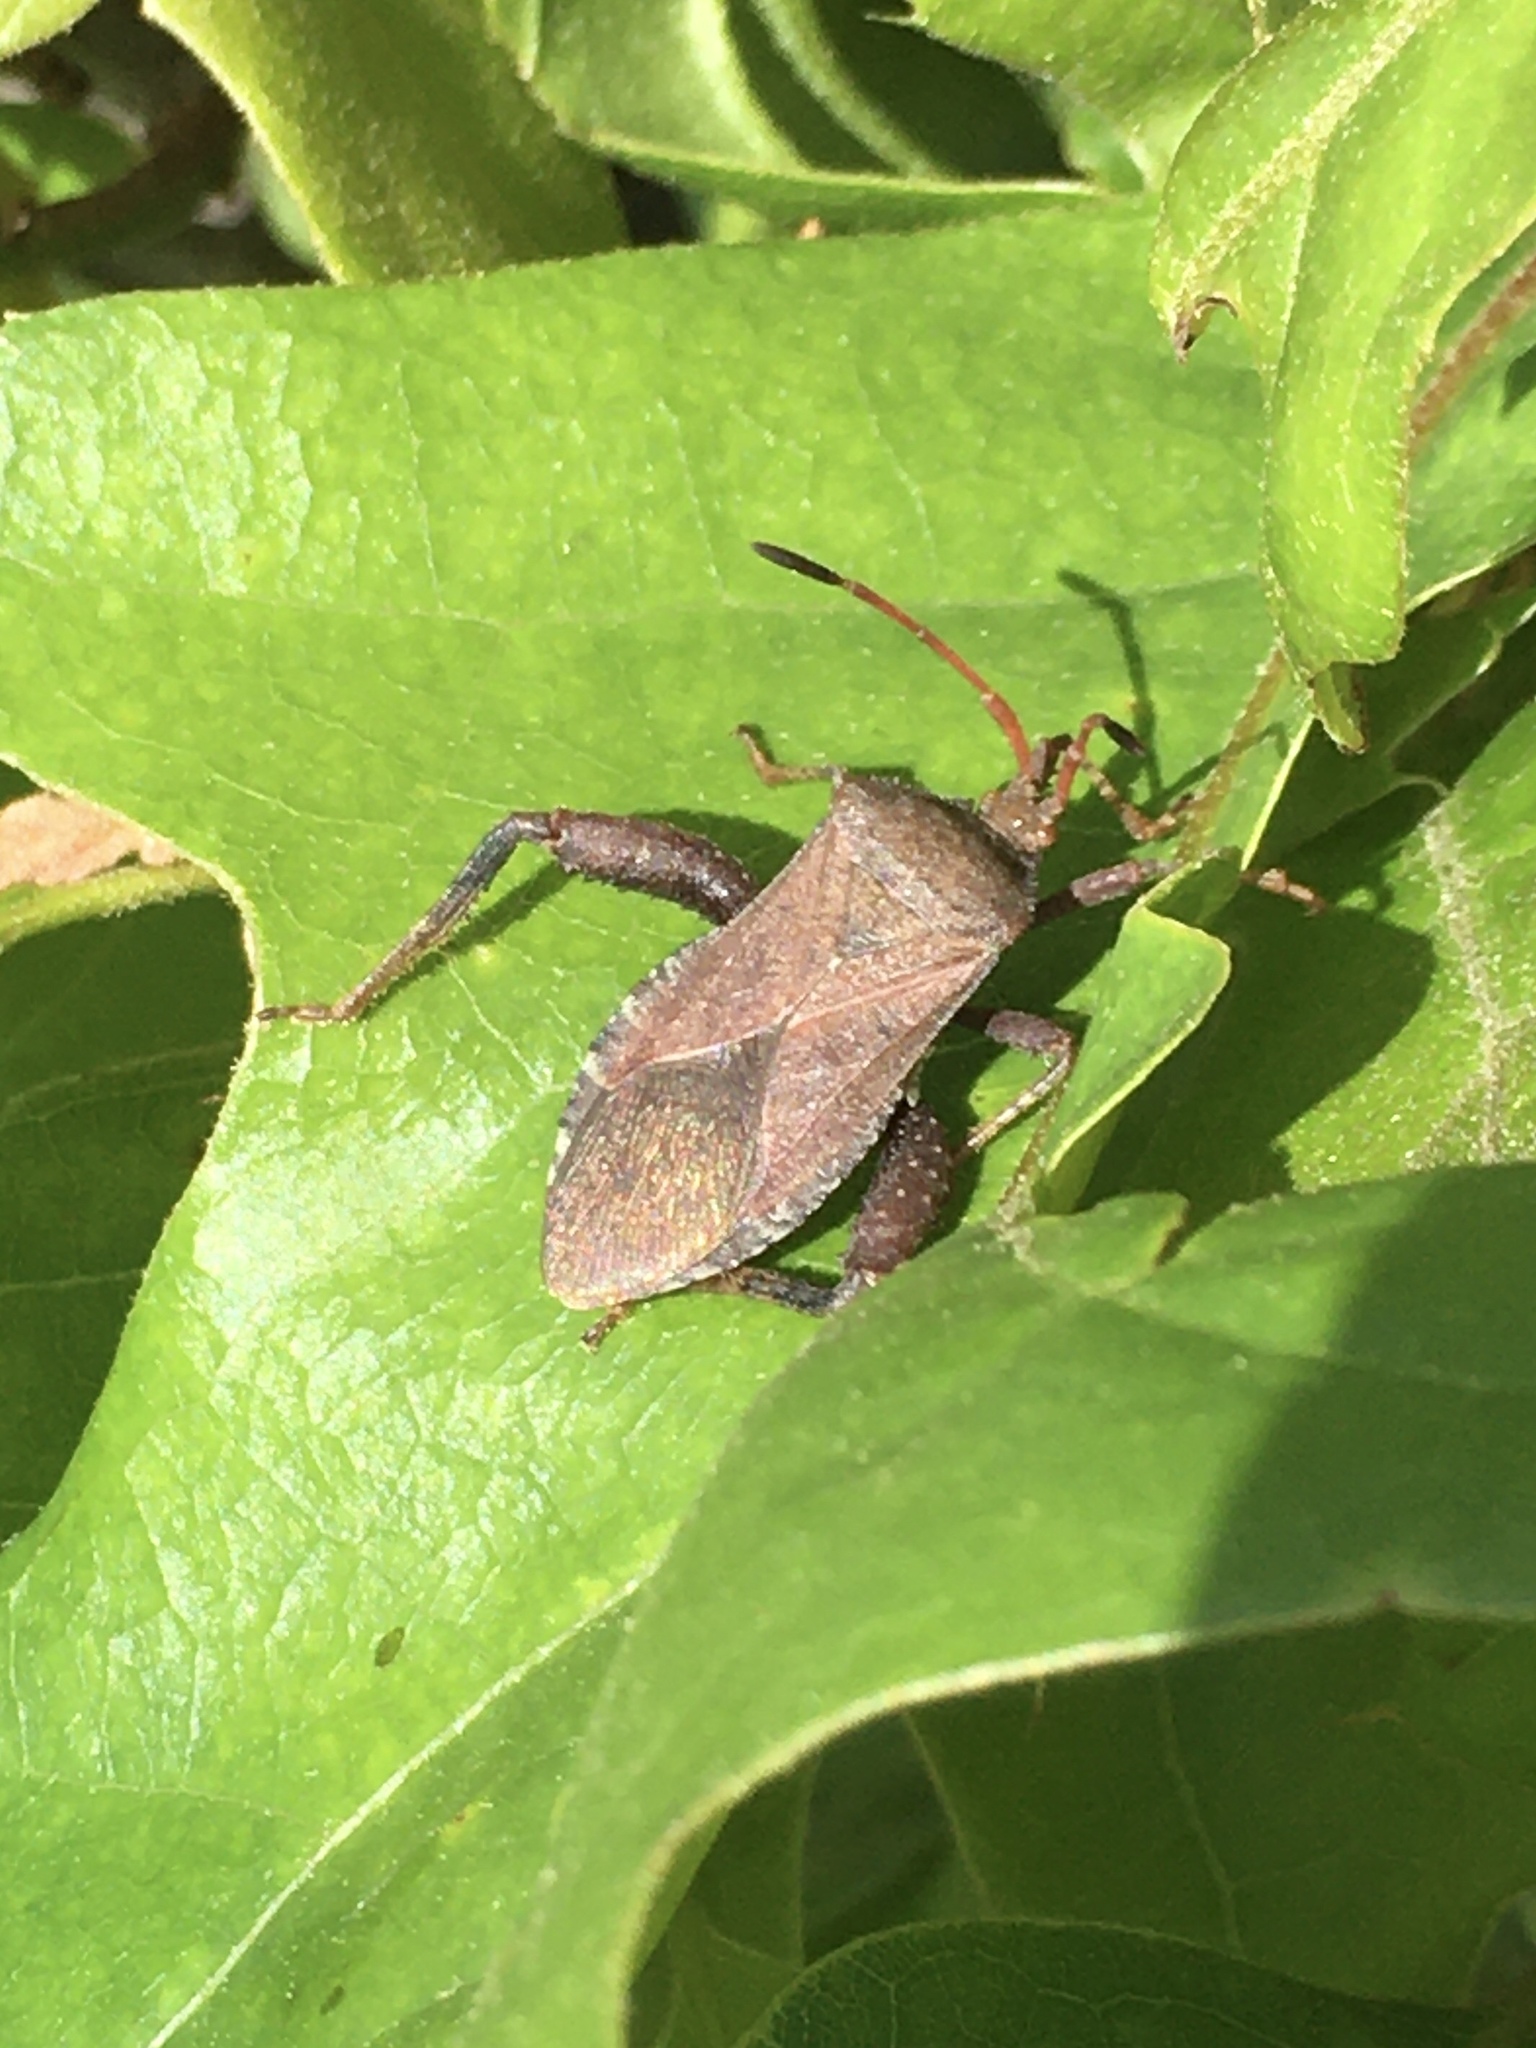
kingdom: Animalia
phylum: Arthropoda
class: Insecta
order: Hemiptera
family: Coreidae
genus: Euthochtha
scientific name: Euthochtha galeator
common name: Helmeted squash bug
